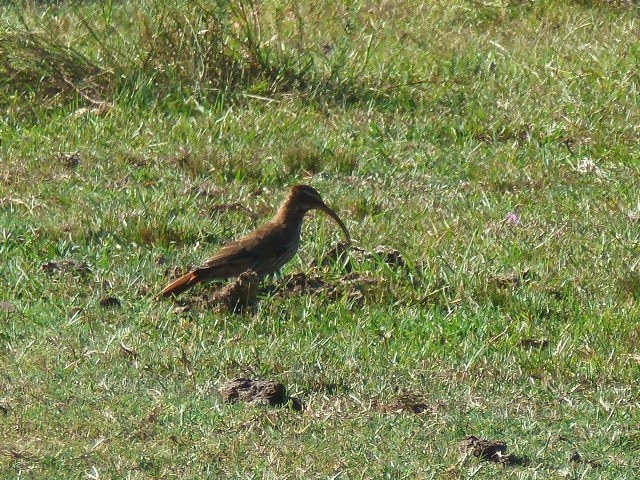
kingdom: Animalia
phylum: Chordata
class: Aves
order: Passeriformes
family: Furnariidae
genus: Drymornis
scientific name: Drymornis bridgesii
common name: Scimitar-billed woodcreeper
